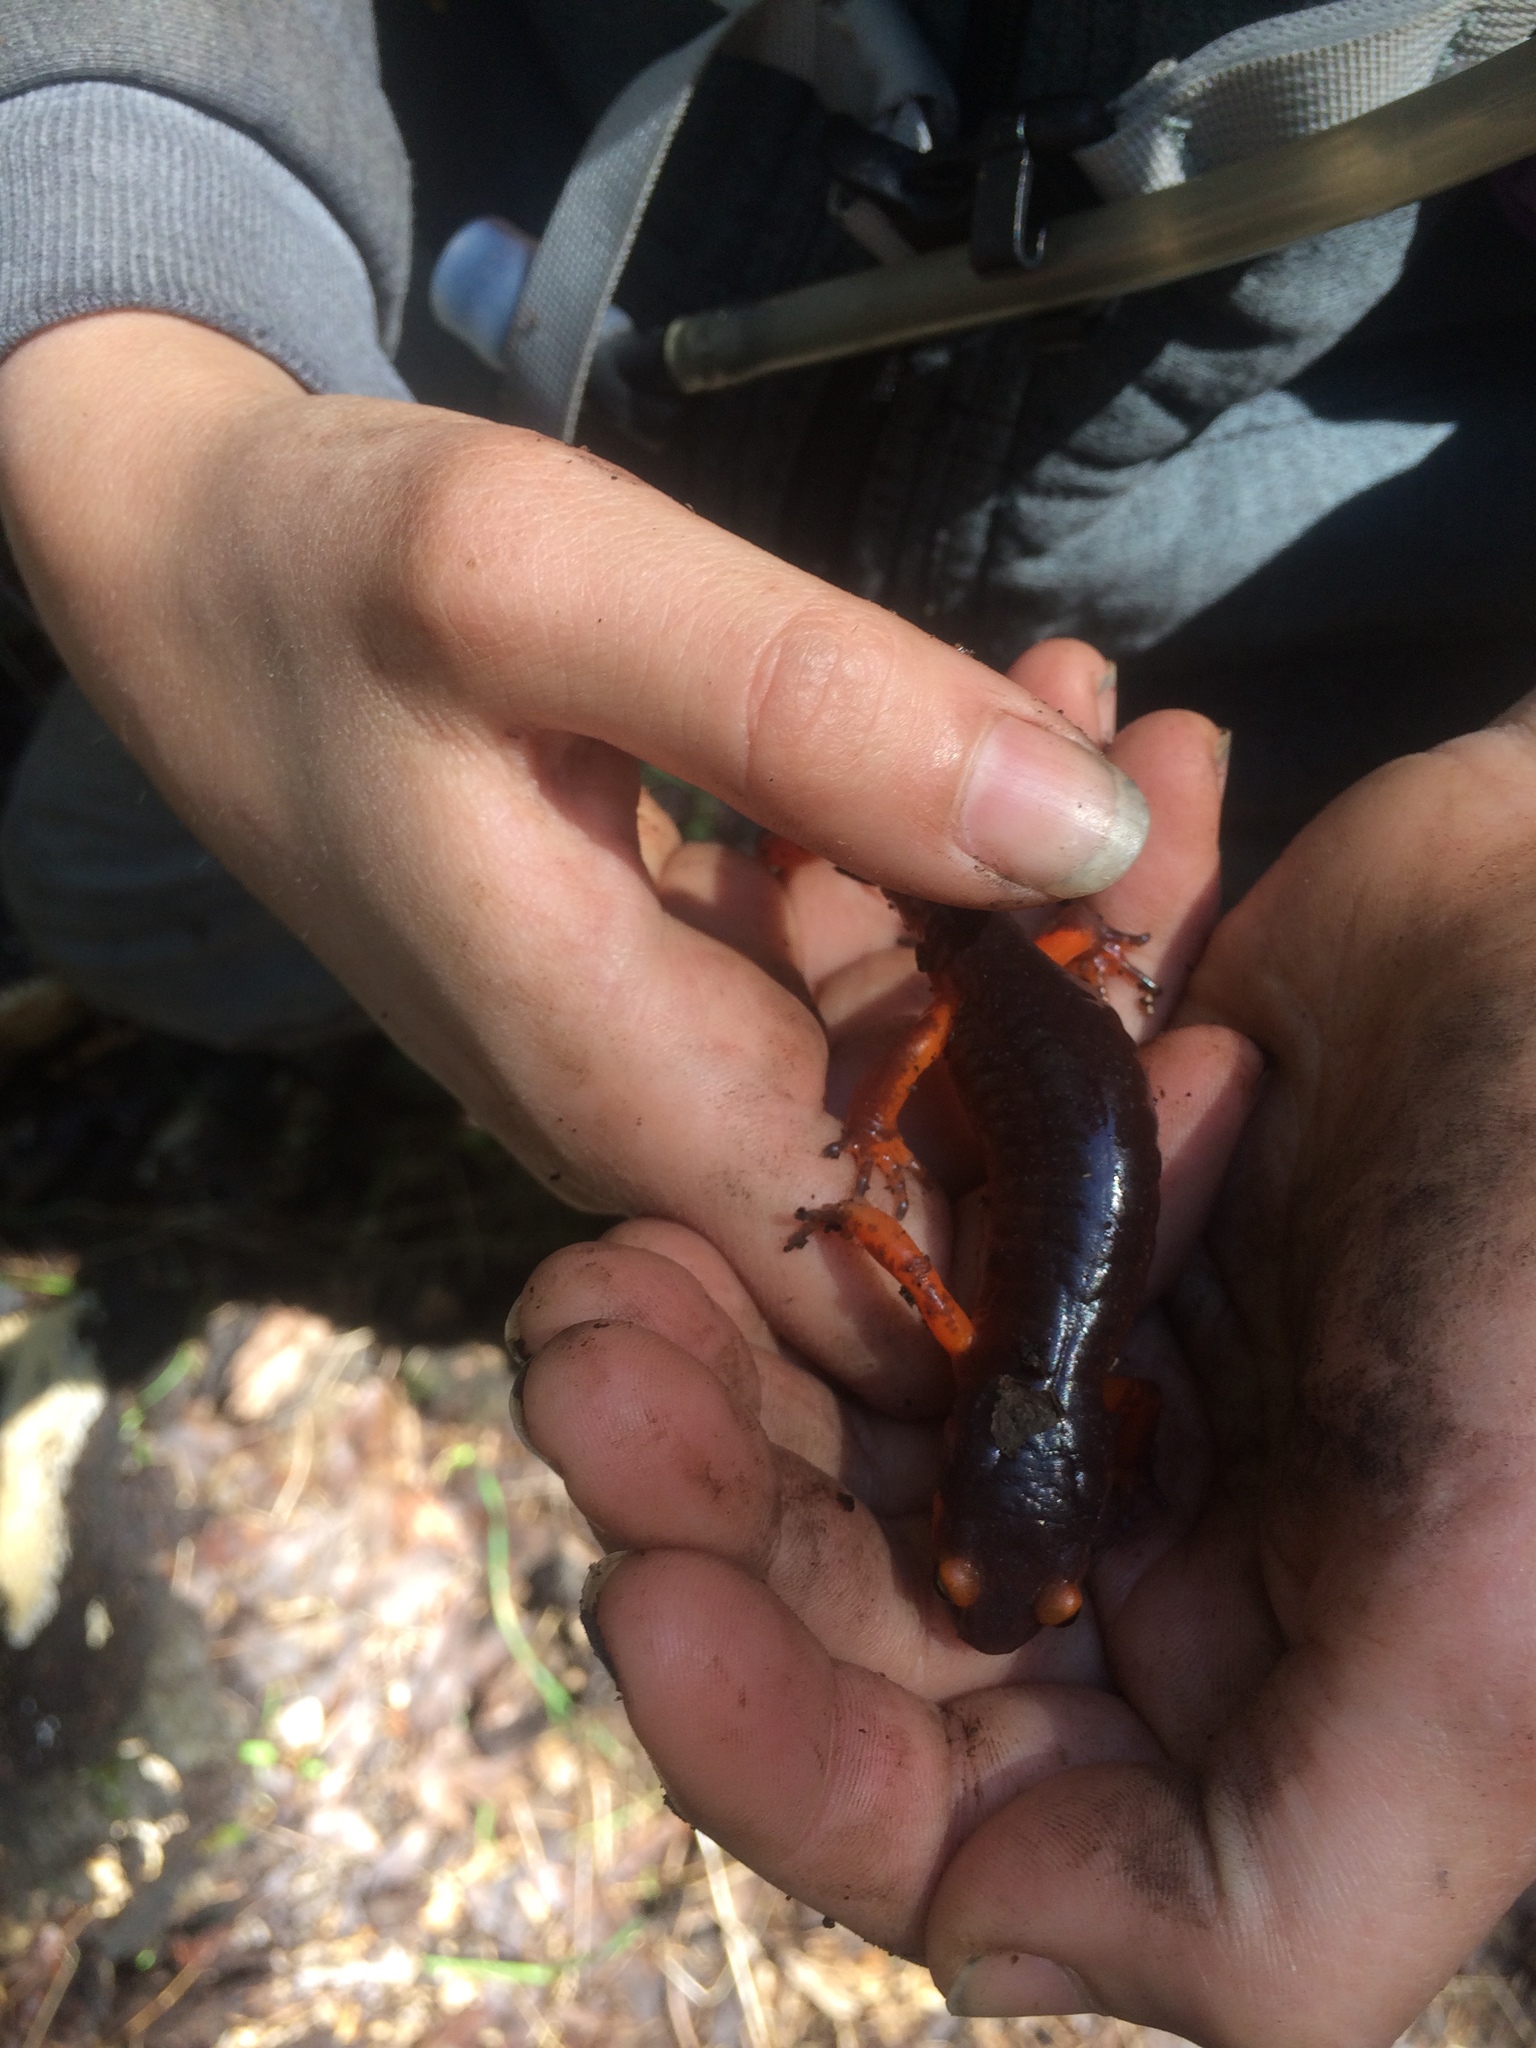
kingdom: Animalia
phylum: Chordata
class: Amphibia
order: Caudata
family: Plethodontidae
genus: Ensatina
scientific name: Ensatina eschscholtzii
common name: Ensatina
